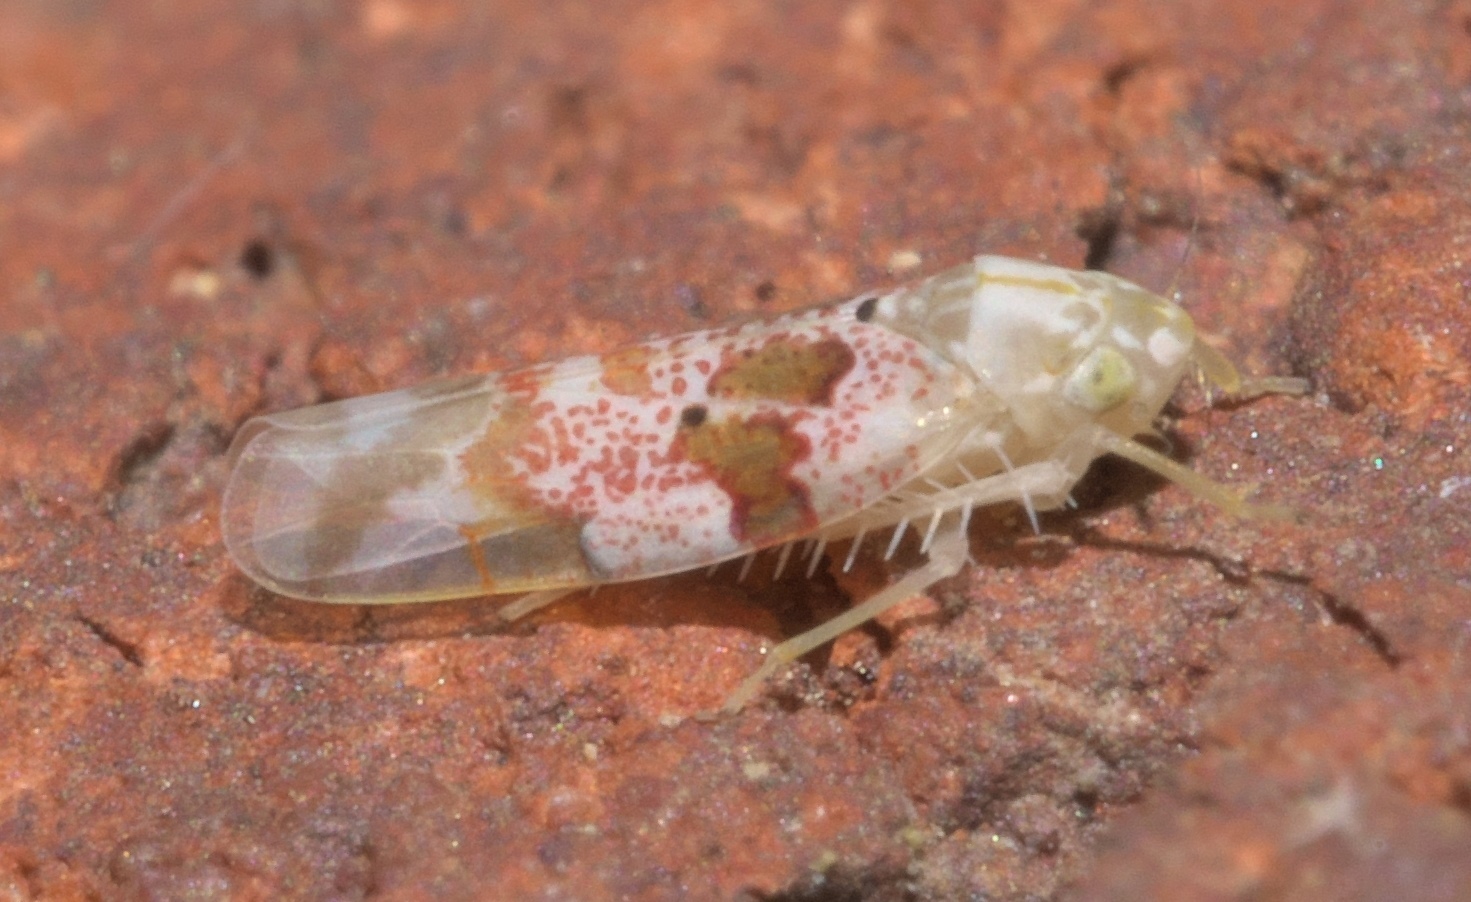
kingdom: Animalia
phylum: Arthropoda
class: Insecta
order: Hemiptera
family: Cicadellidae
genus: Hymetta
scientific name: Hymetta balteata
